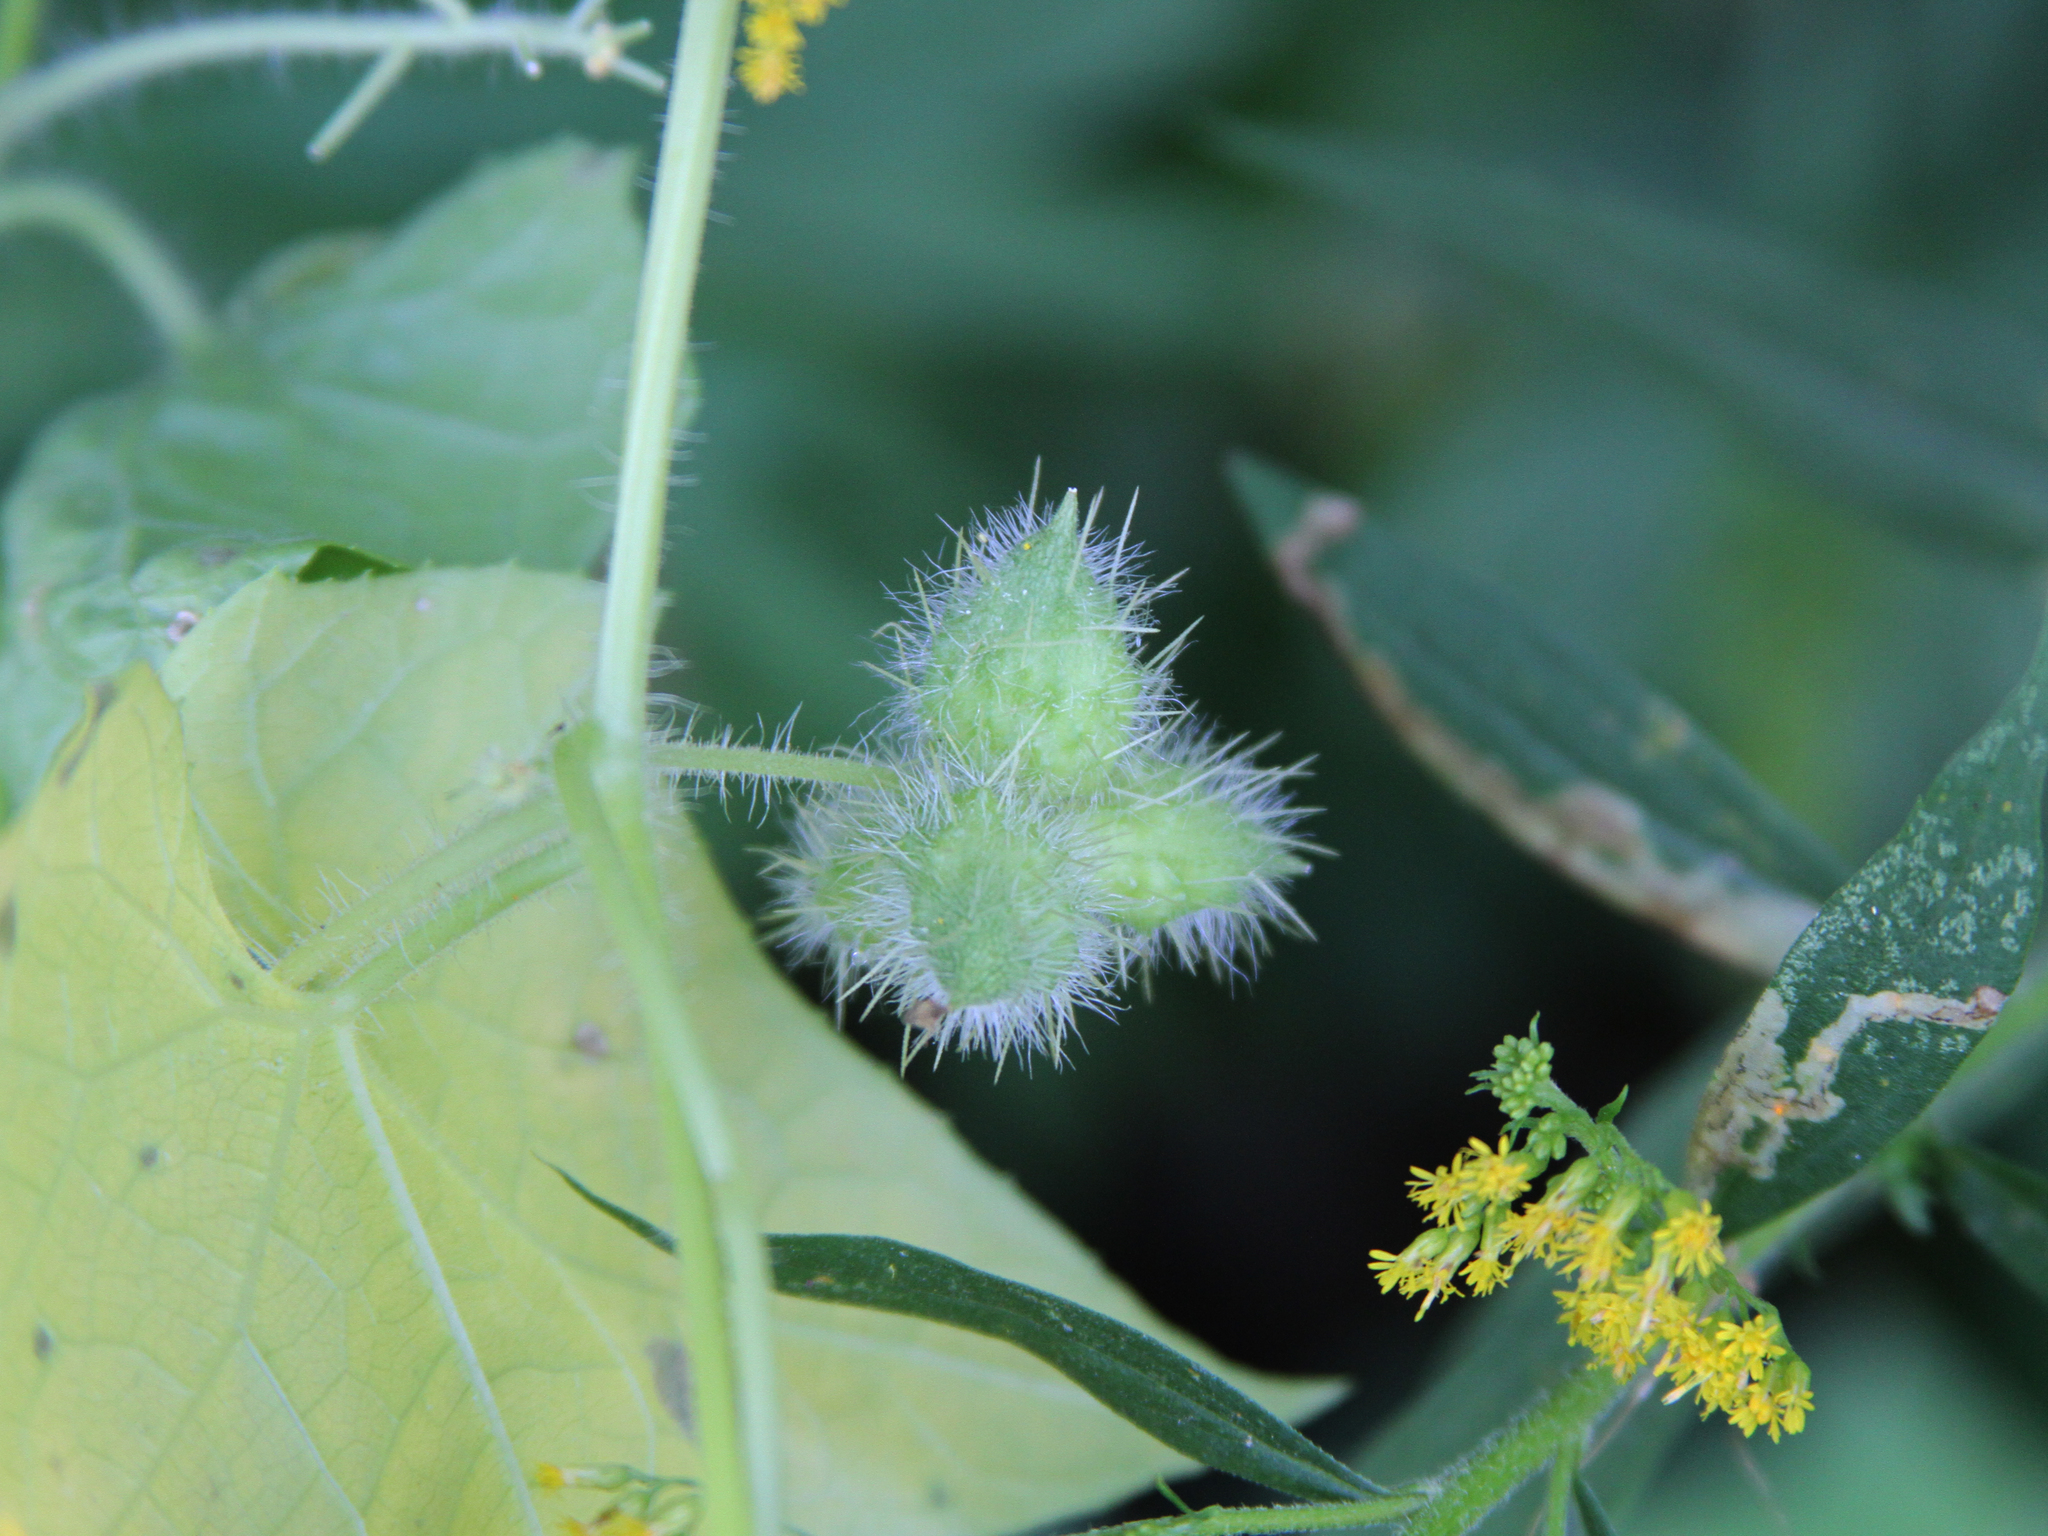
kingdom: Plantae
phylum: Tracheophyta
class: Magnoliopsida
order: Cucurbitales
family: Cucurbitaceae
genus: Sicyos
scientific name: Sicyos angulatus
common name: Angled burr cucumber
